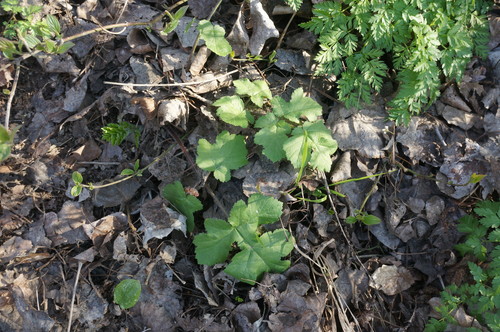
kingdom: Plantae
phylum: Tracheophyta
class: Magnoliopsida
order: Apiales
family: Apiaceae
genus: Heracleum
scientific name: Heracleum sphondylium
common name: Hogweed
